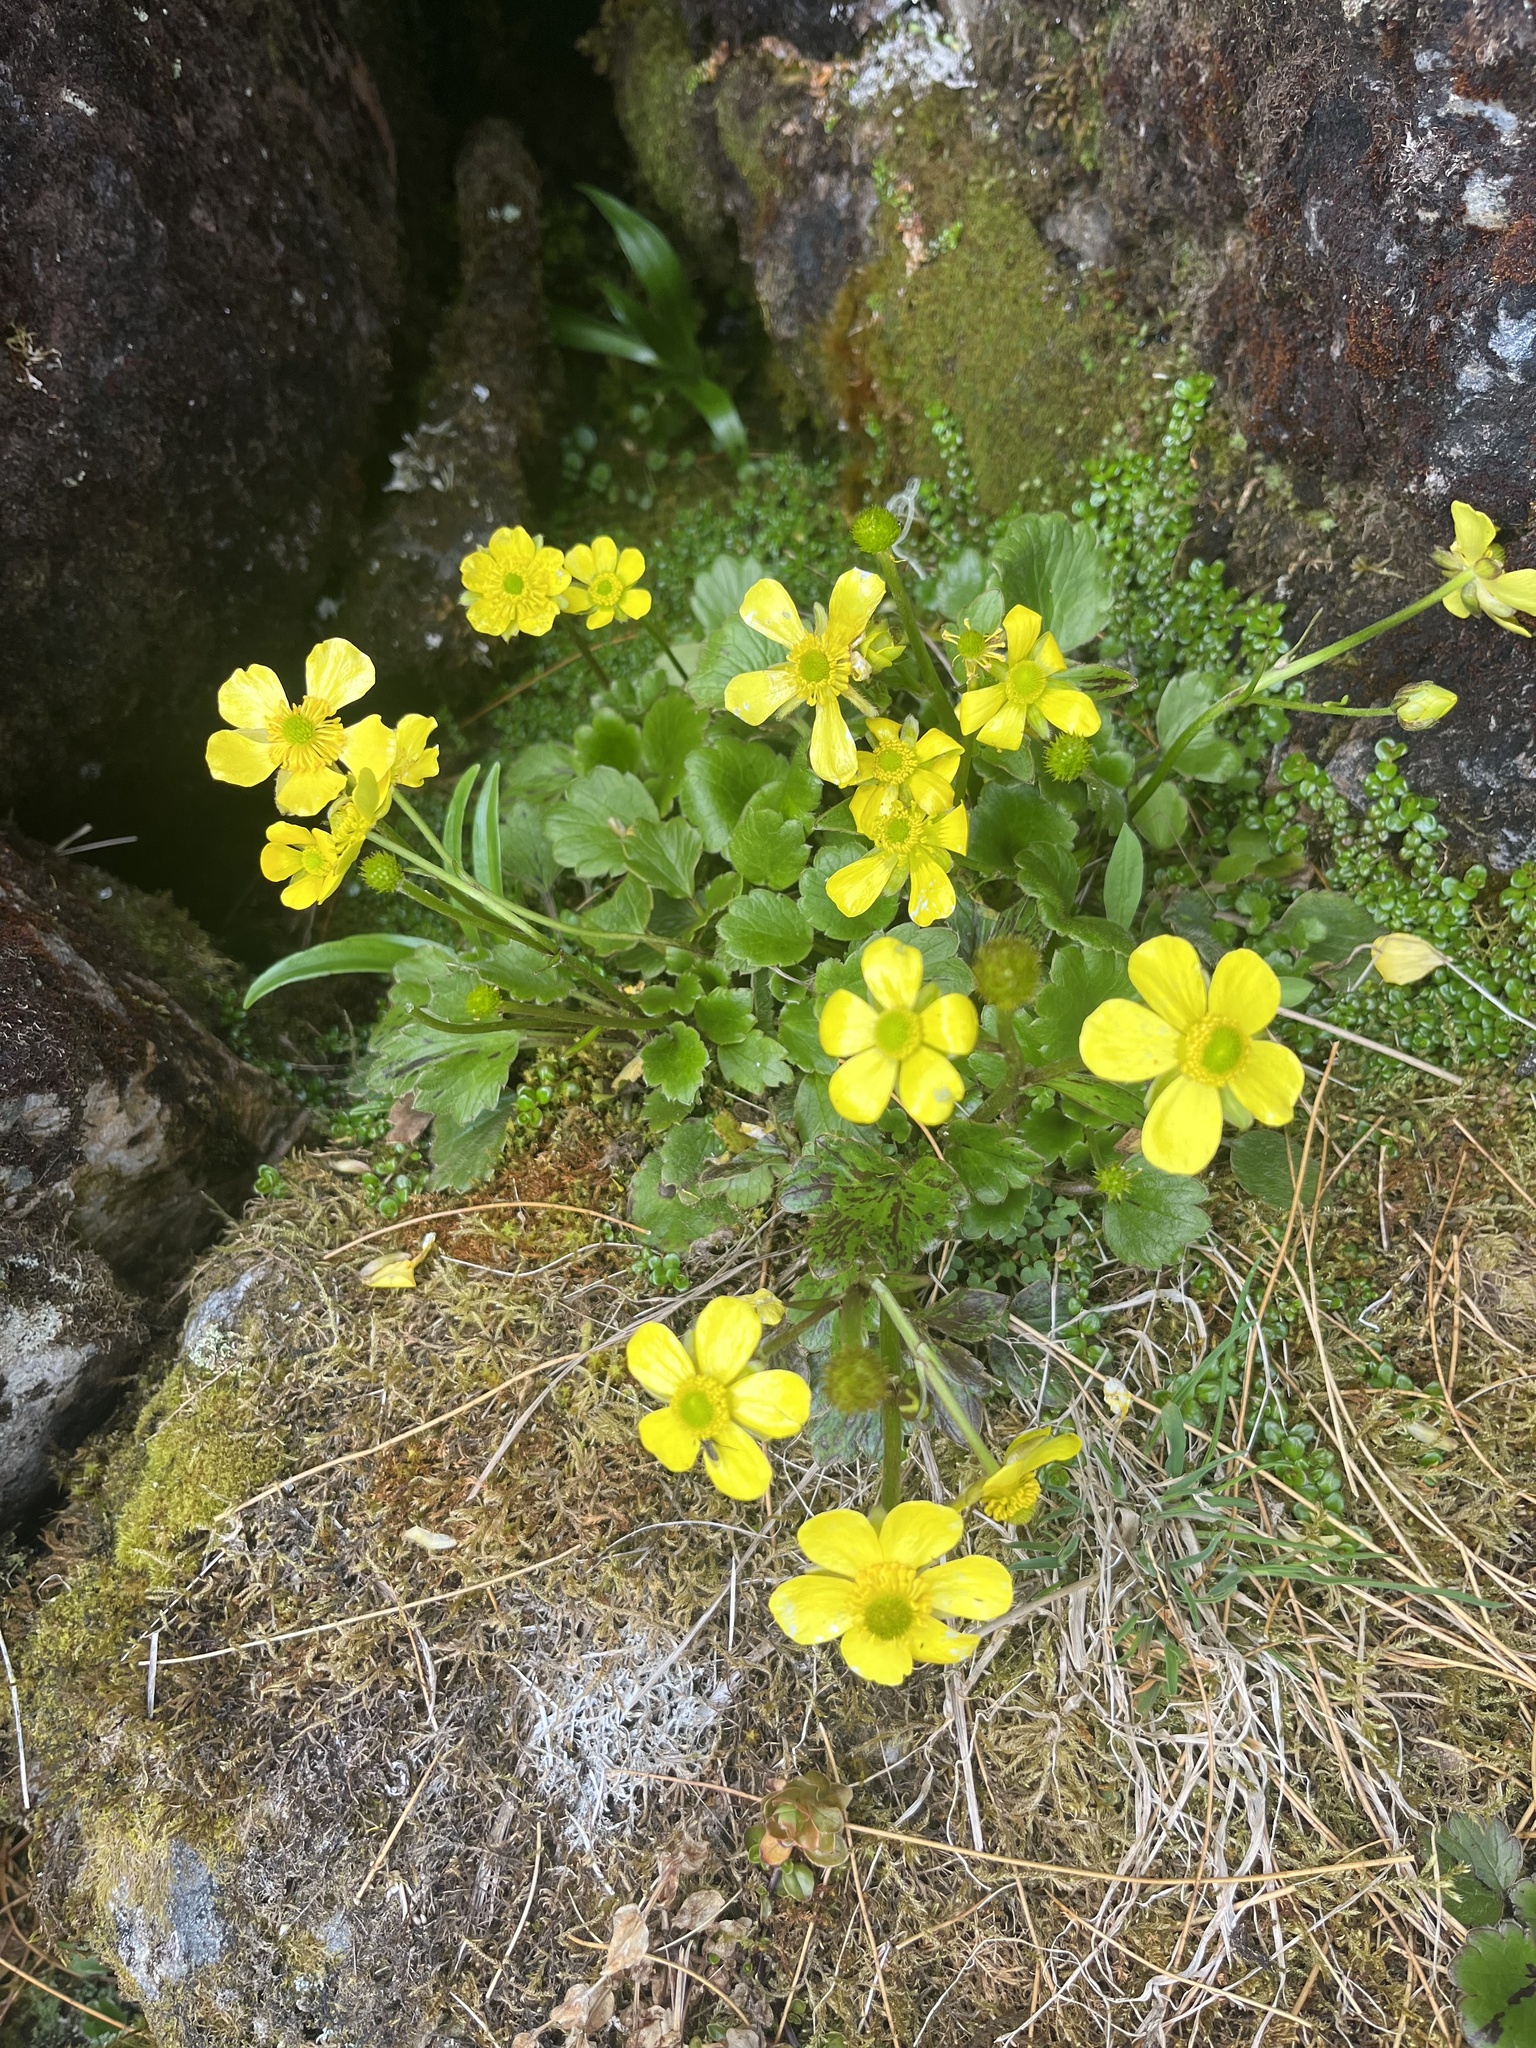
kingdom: Plantae
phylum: Tracheophyta
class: Magnoliopsida
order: Ranunculales
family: Ranunculaceae
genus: Ranunculus
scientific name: Ranunculus insignis
